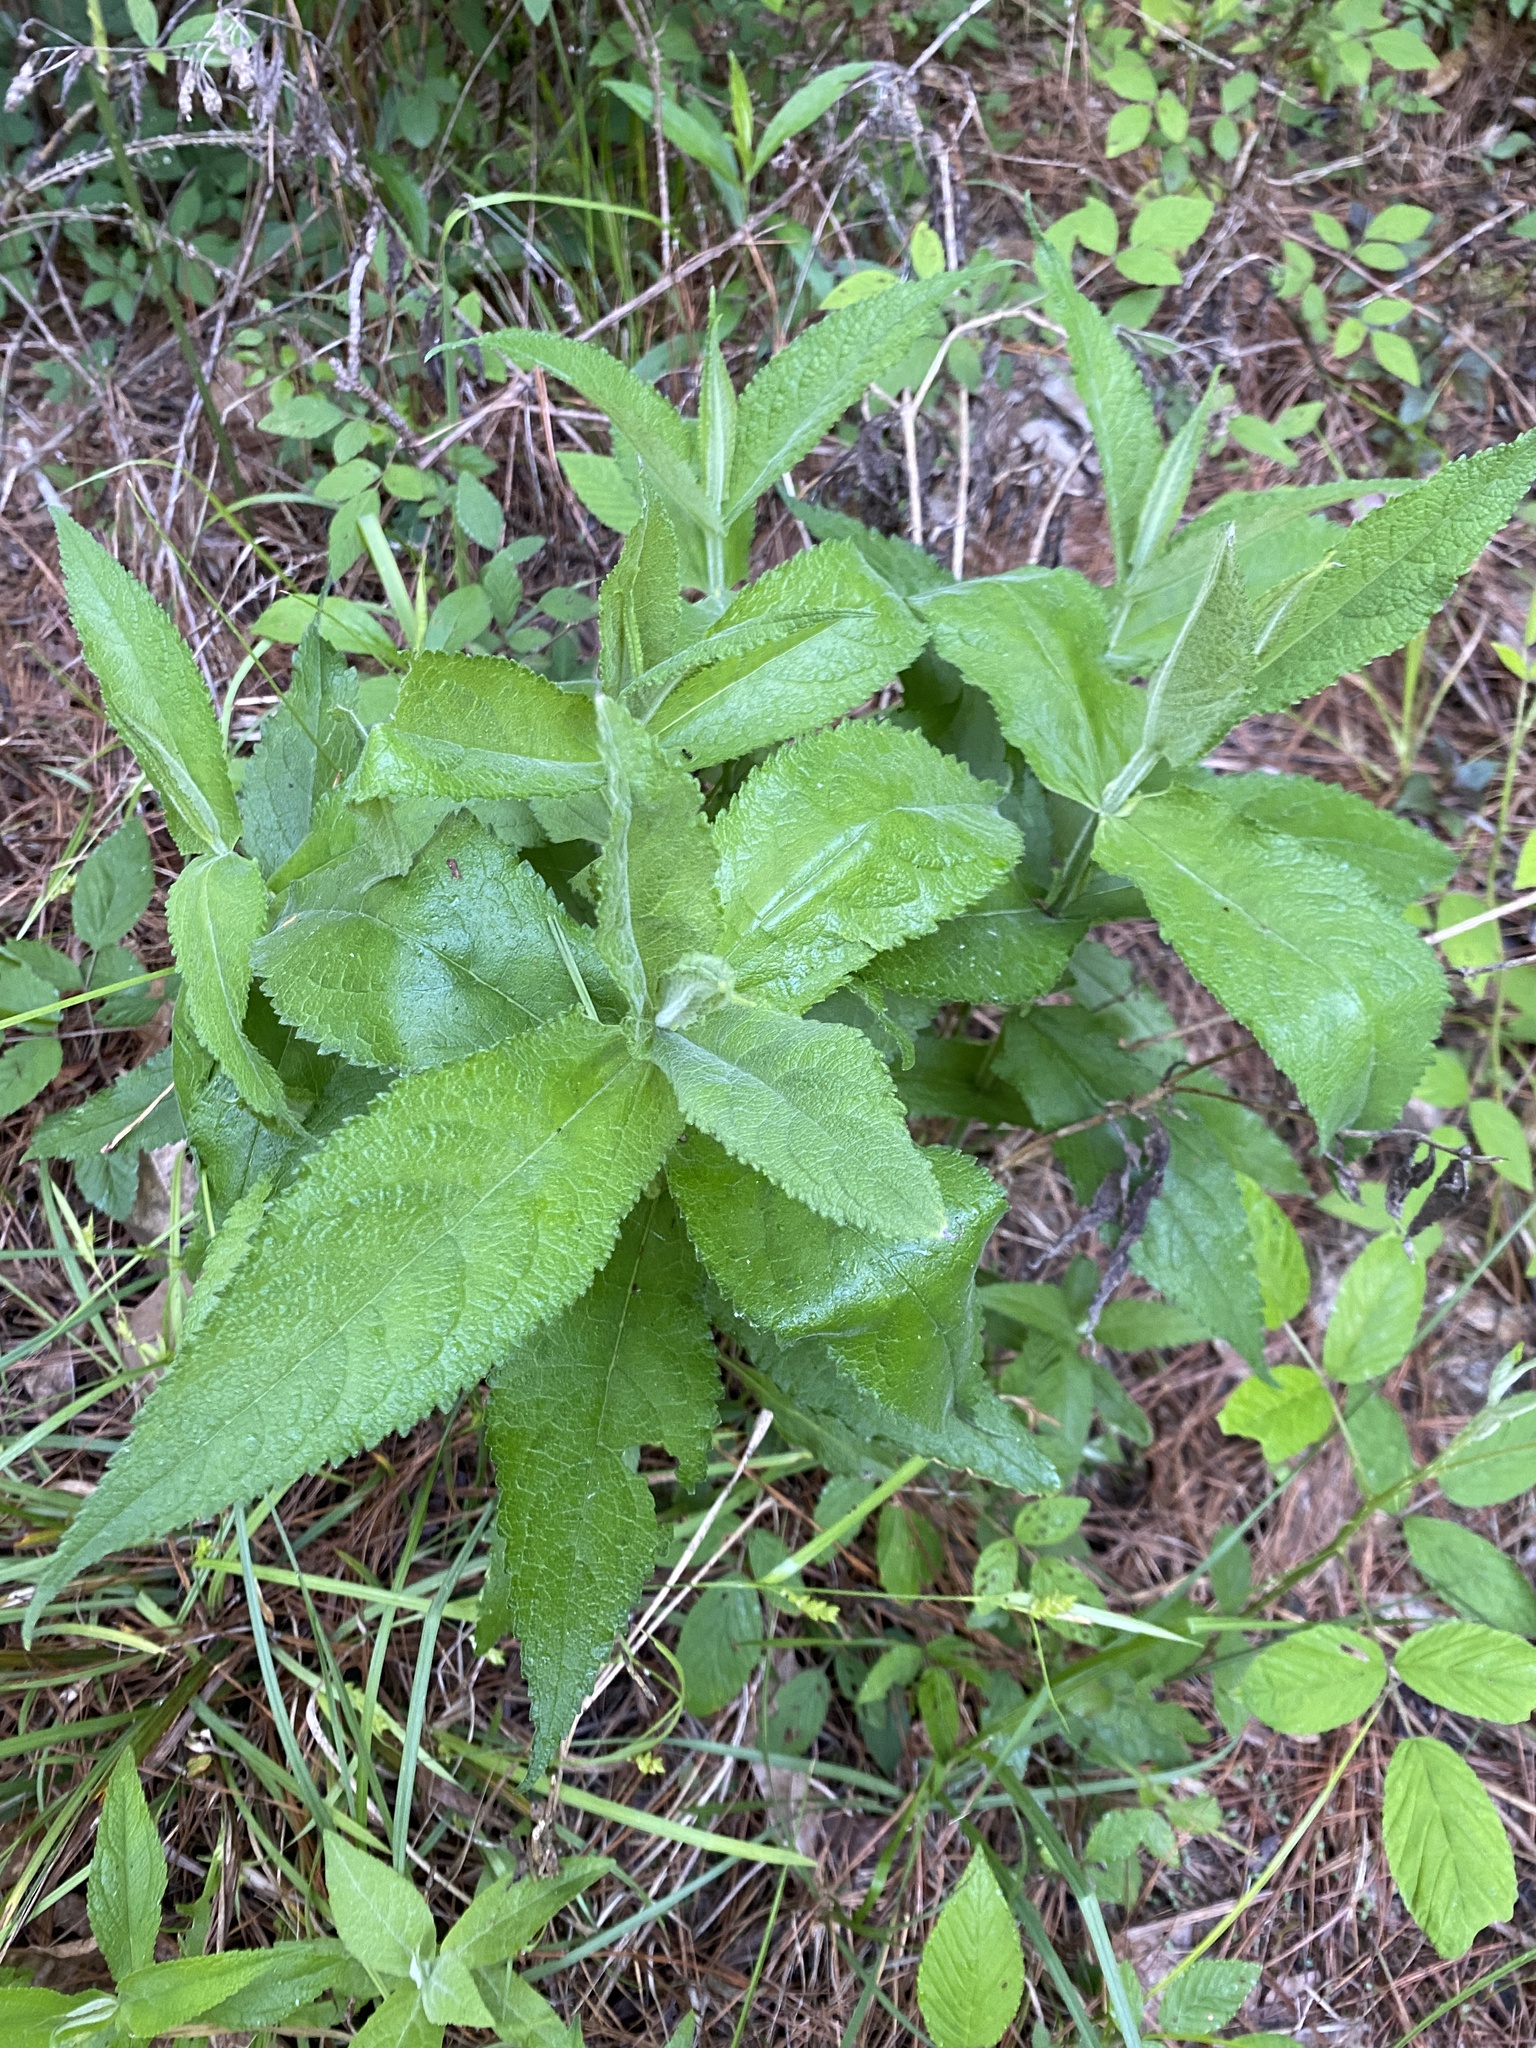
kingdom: Plantae
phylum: Tracheophyta
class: Magnoliopsida
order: Asterales
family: Asteraceae
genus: Eupatorium
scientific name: Eupatorium perfoliatum
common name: Boneset
